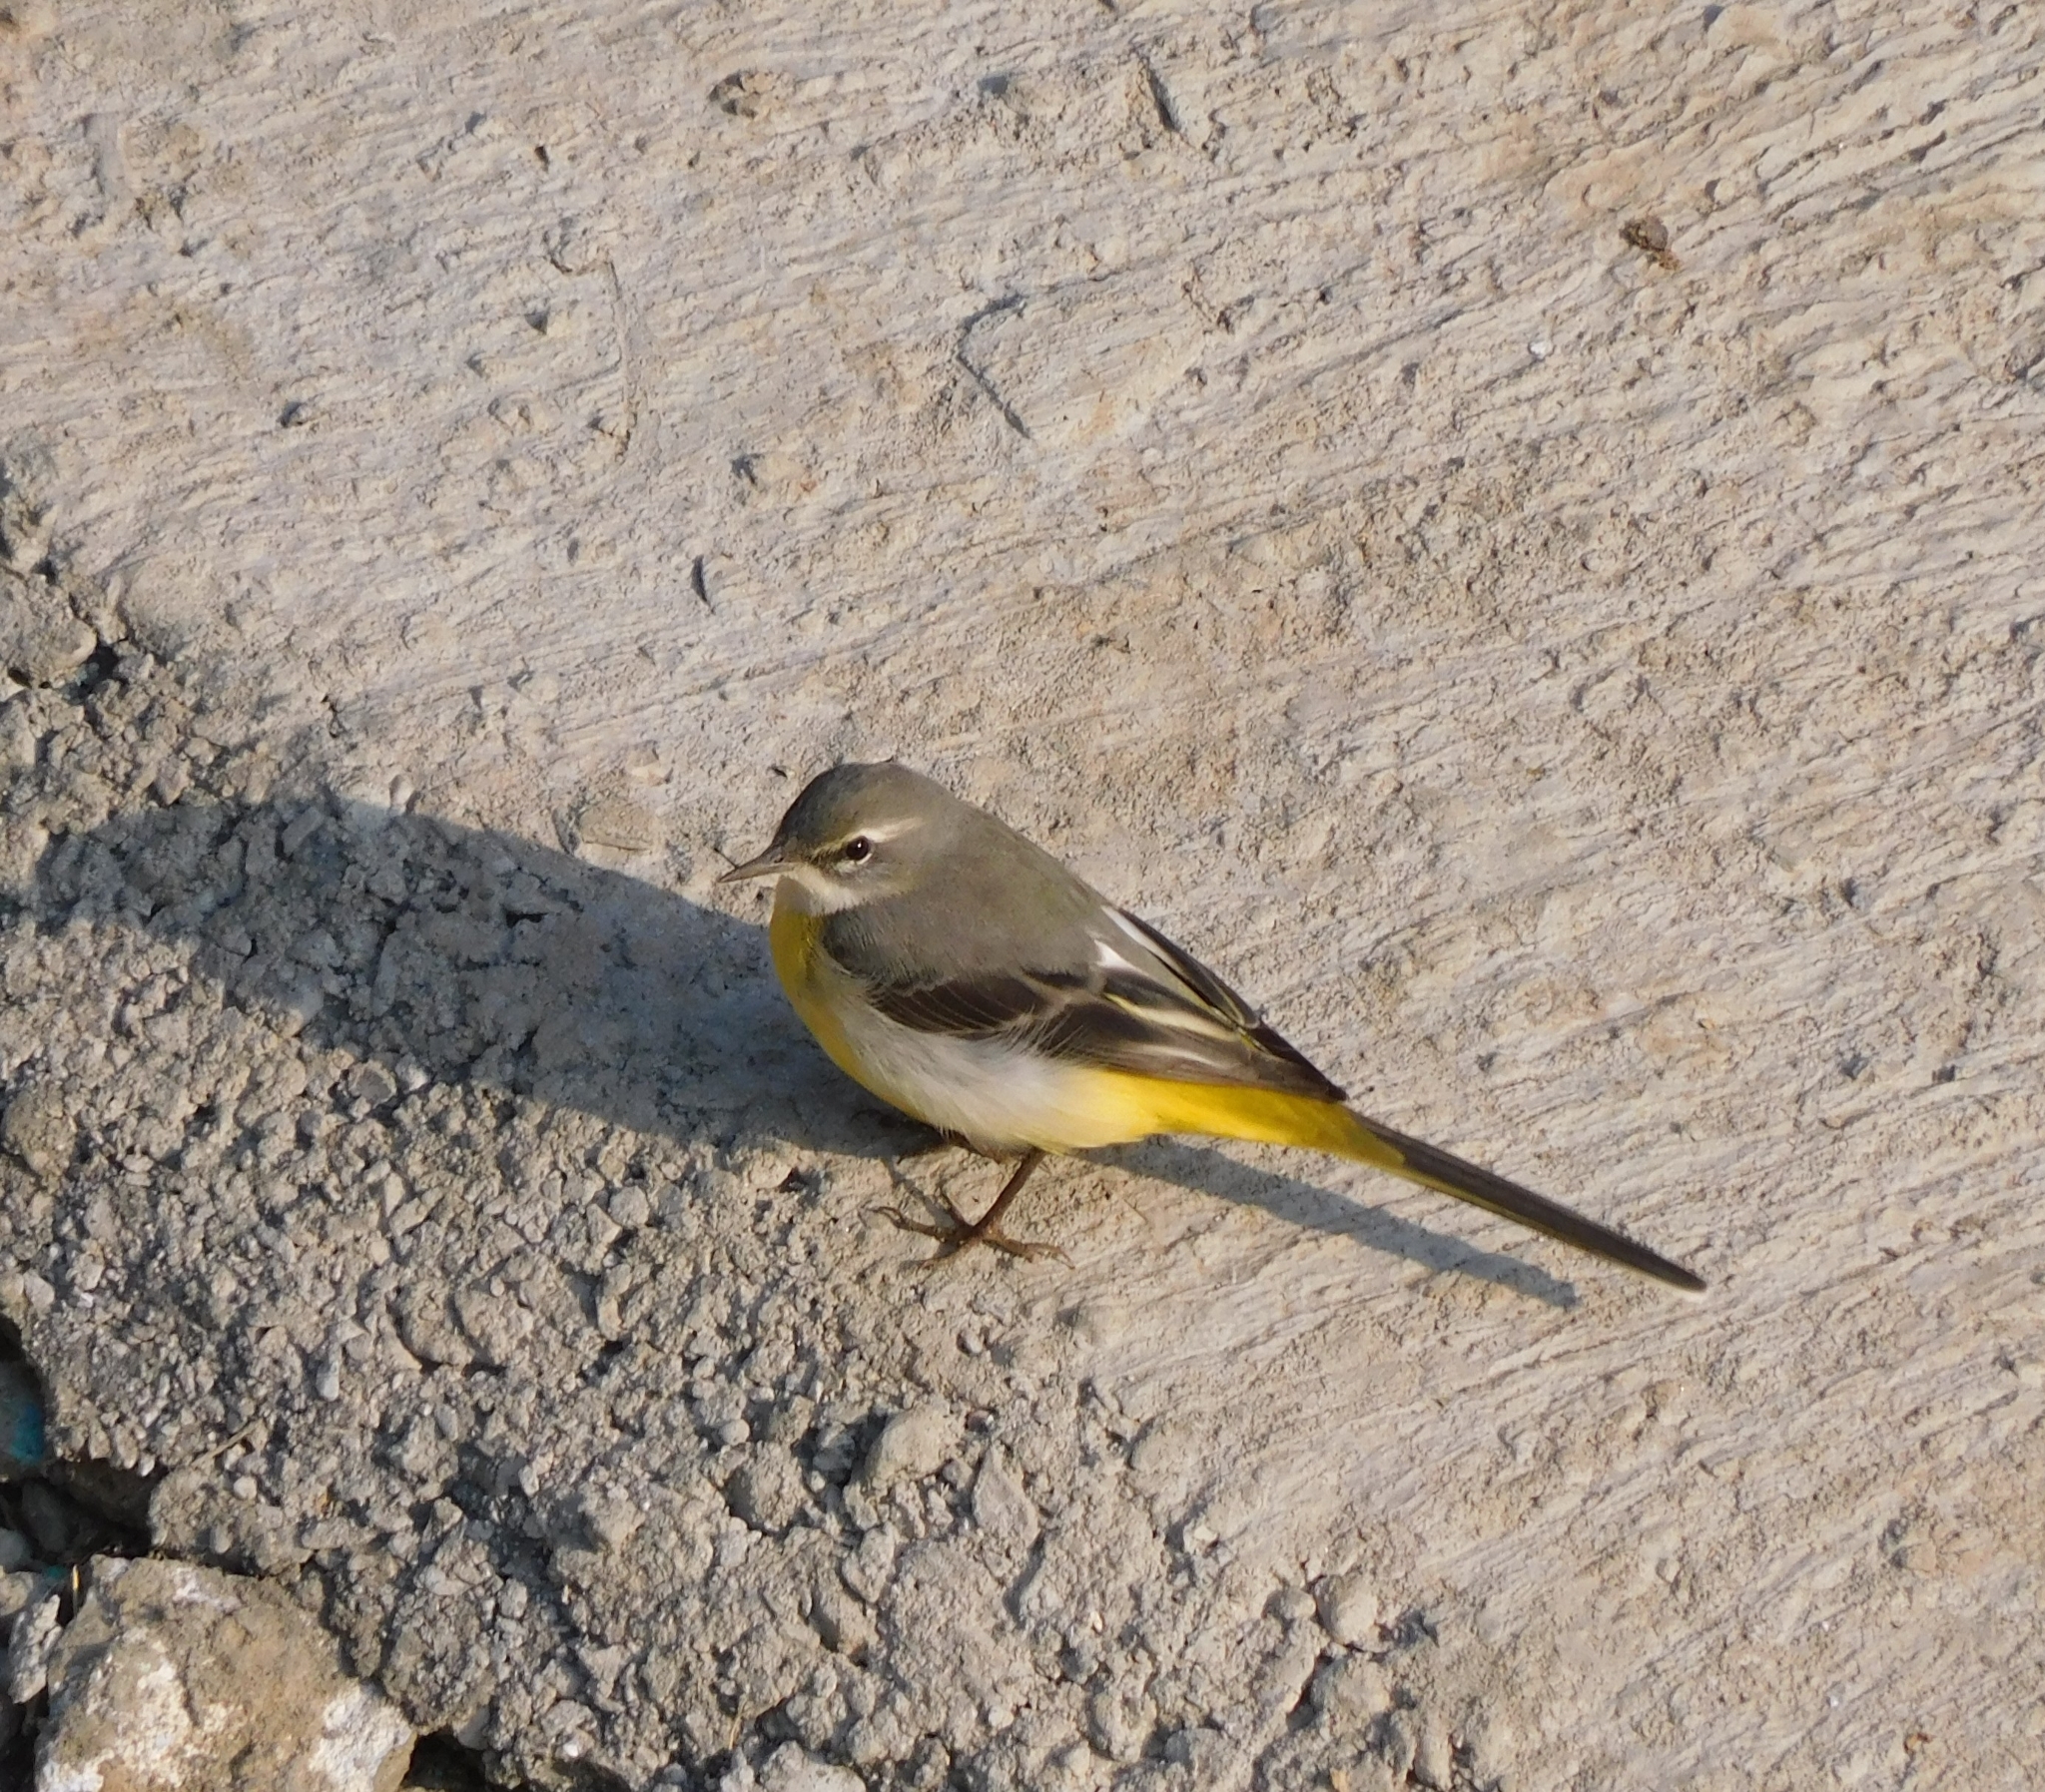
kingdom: Animalia
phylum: Chordata
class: Aves
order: Passeriformes
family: Motacillidae
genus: Motacilla
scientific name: Motacilla cinerea
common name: Grey wagtail
